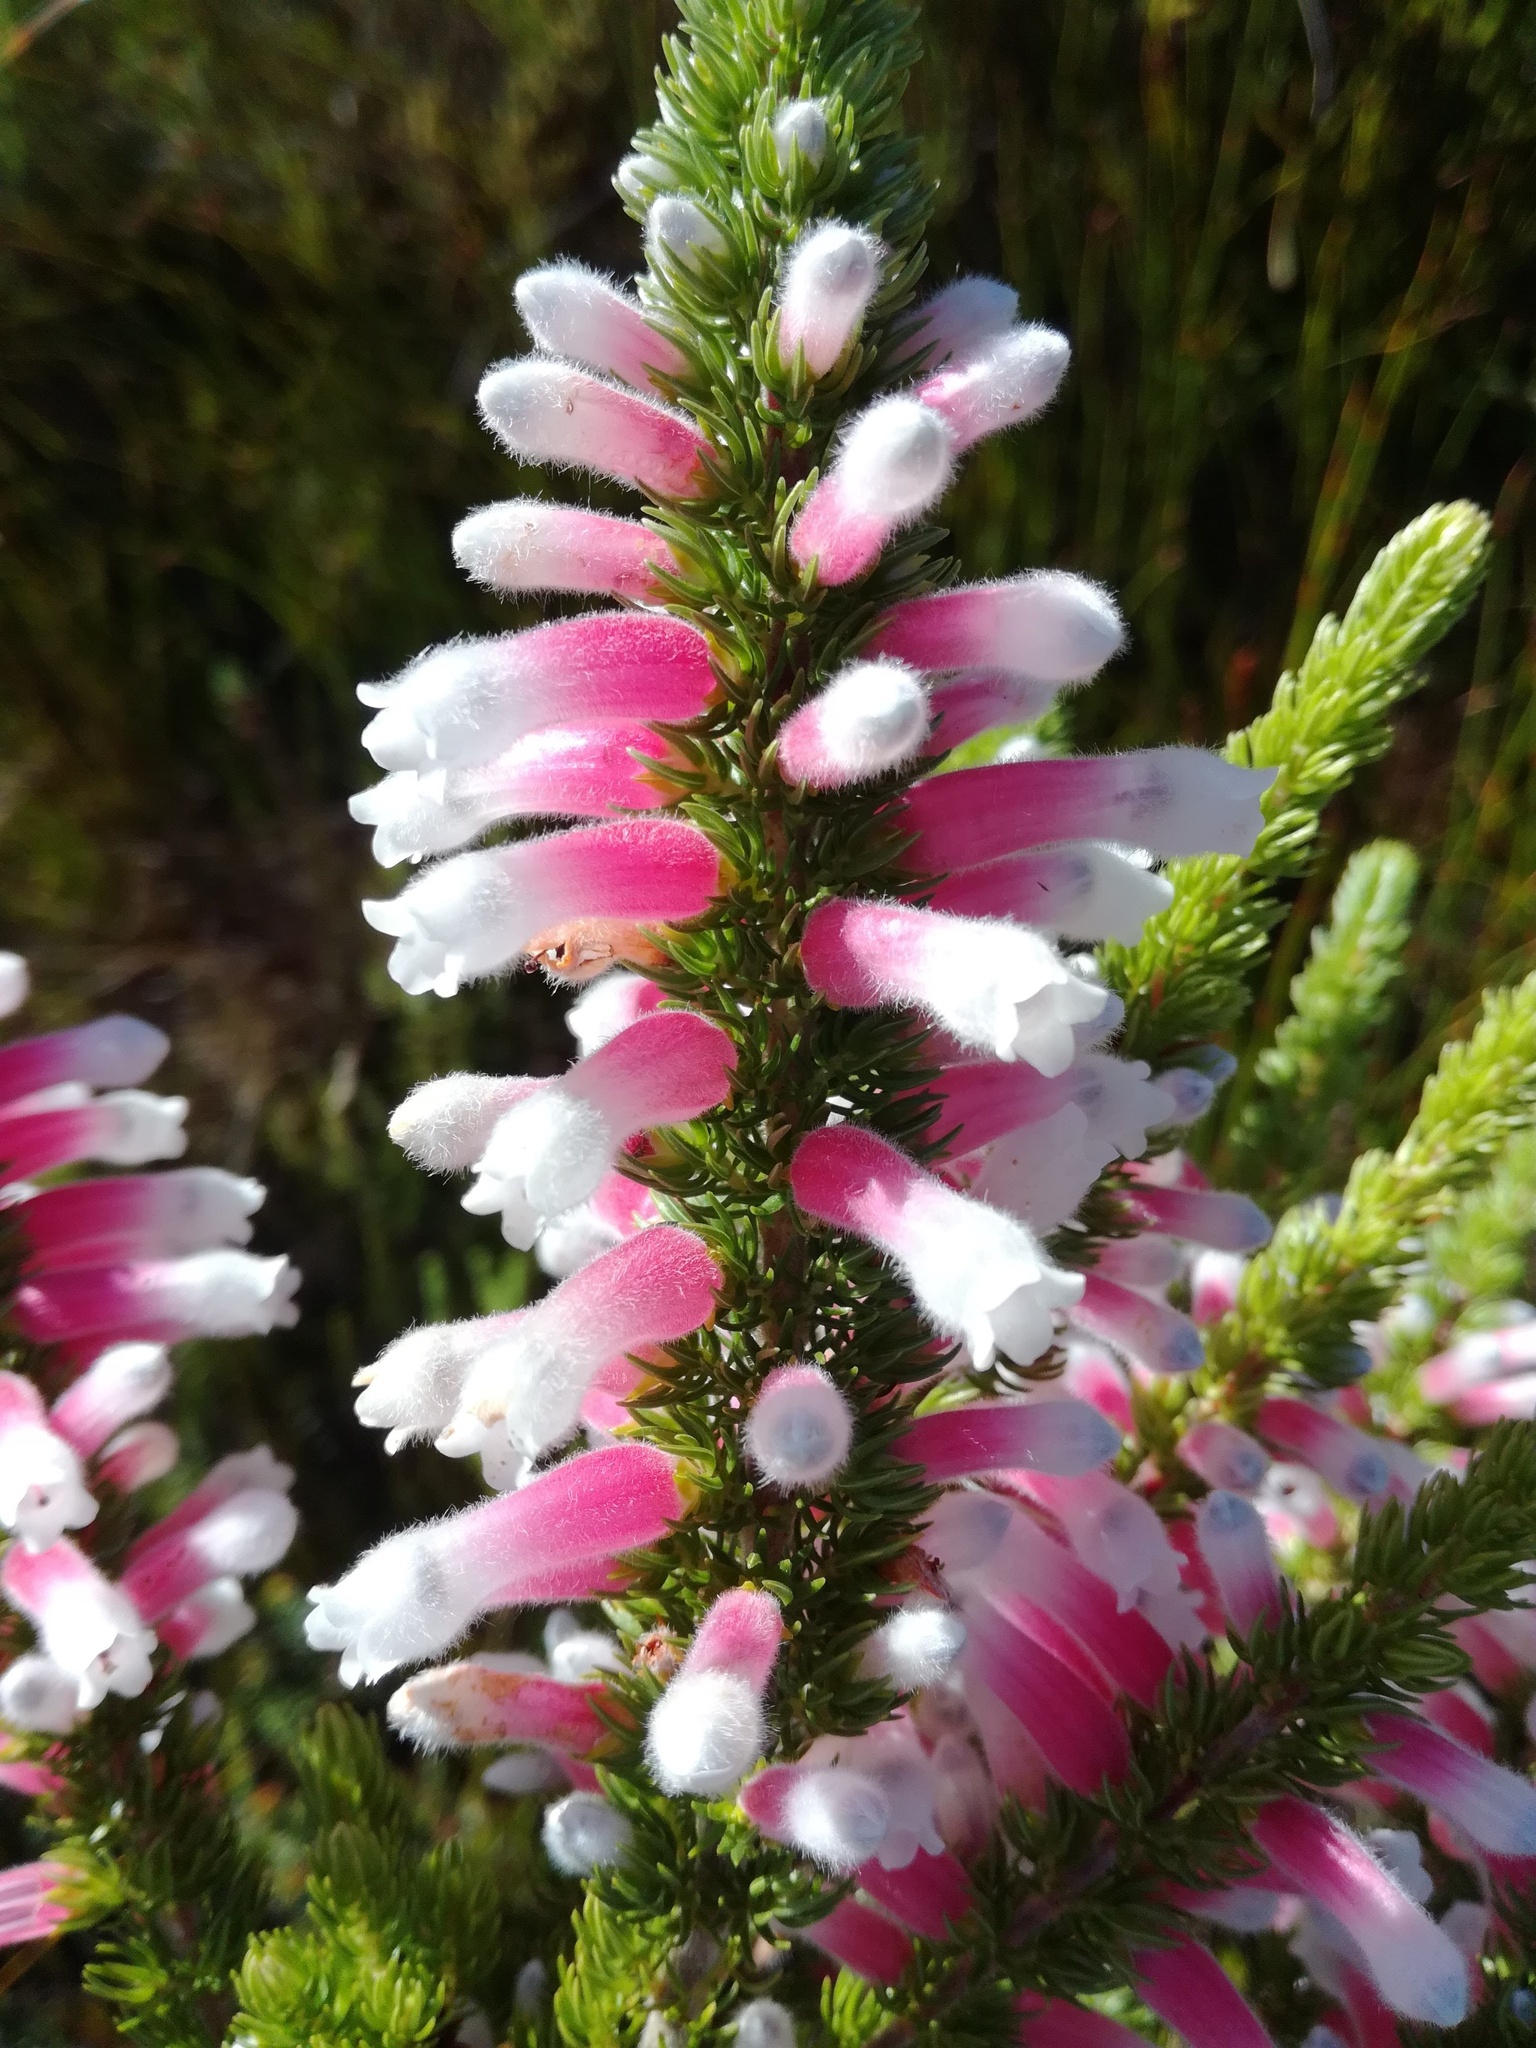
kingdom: Plantae
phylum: Tracheophyta
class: Magnoliopsida
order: Ericales
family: Ericaceae
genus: Erica
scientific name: Erica leucotrachela
